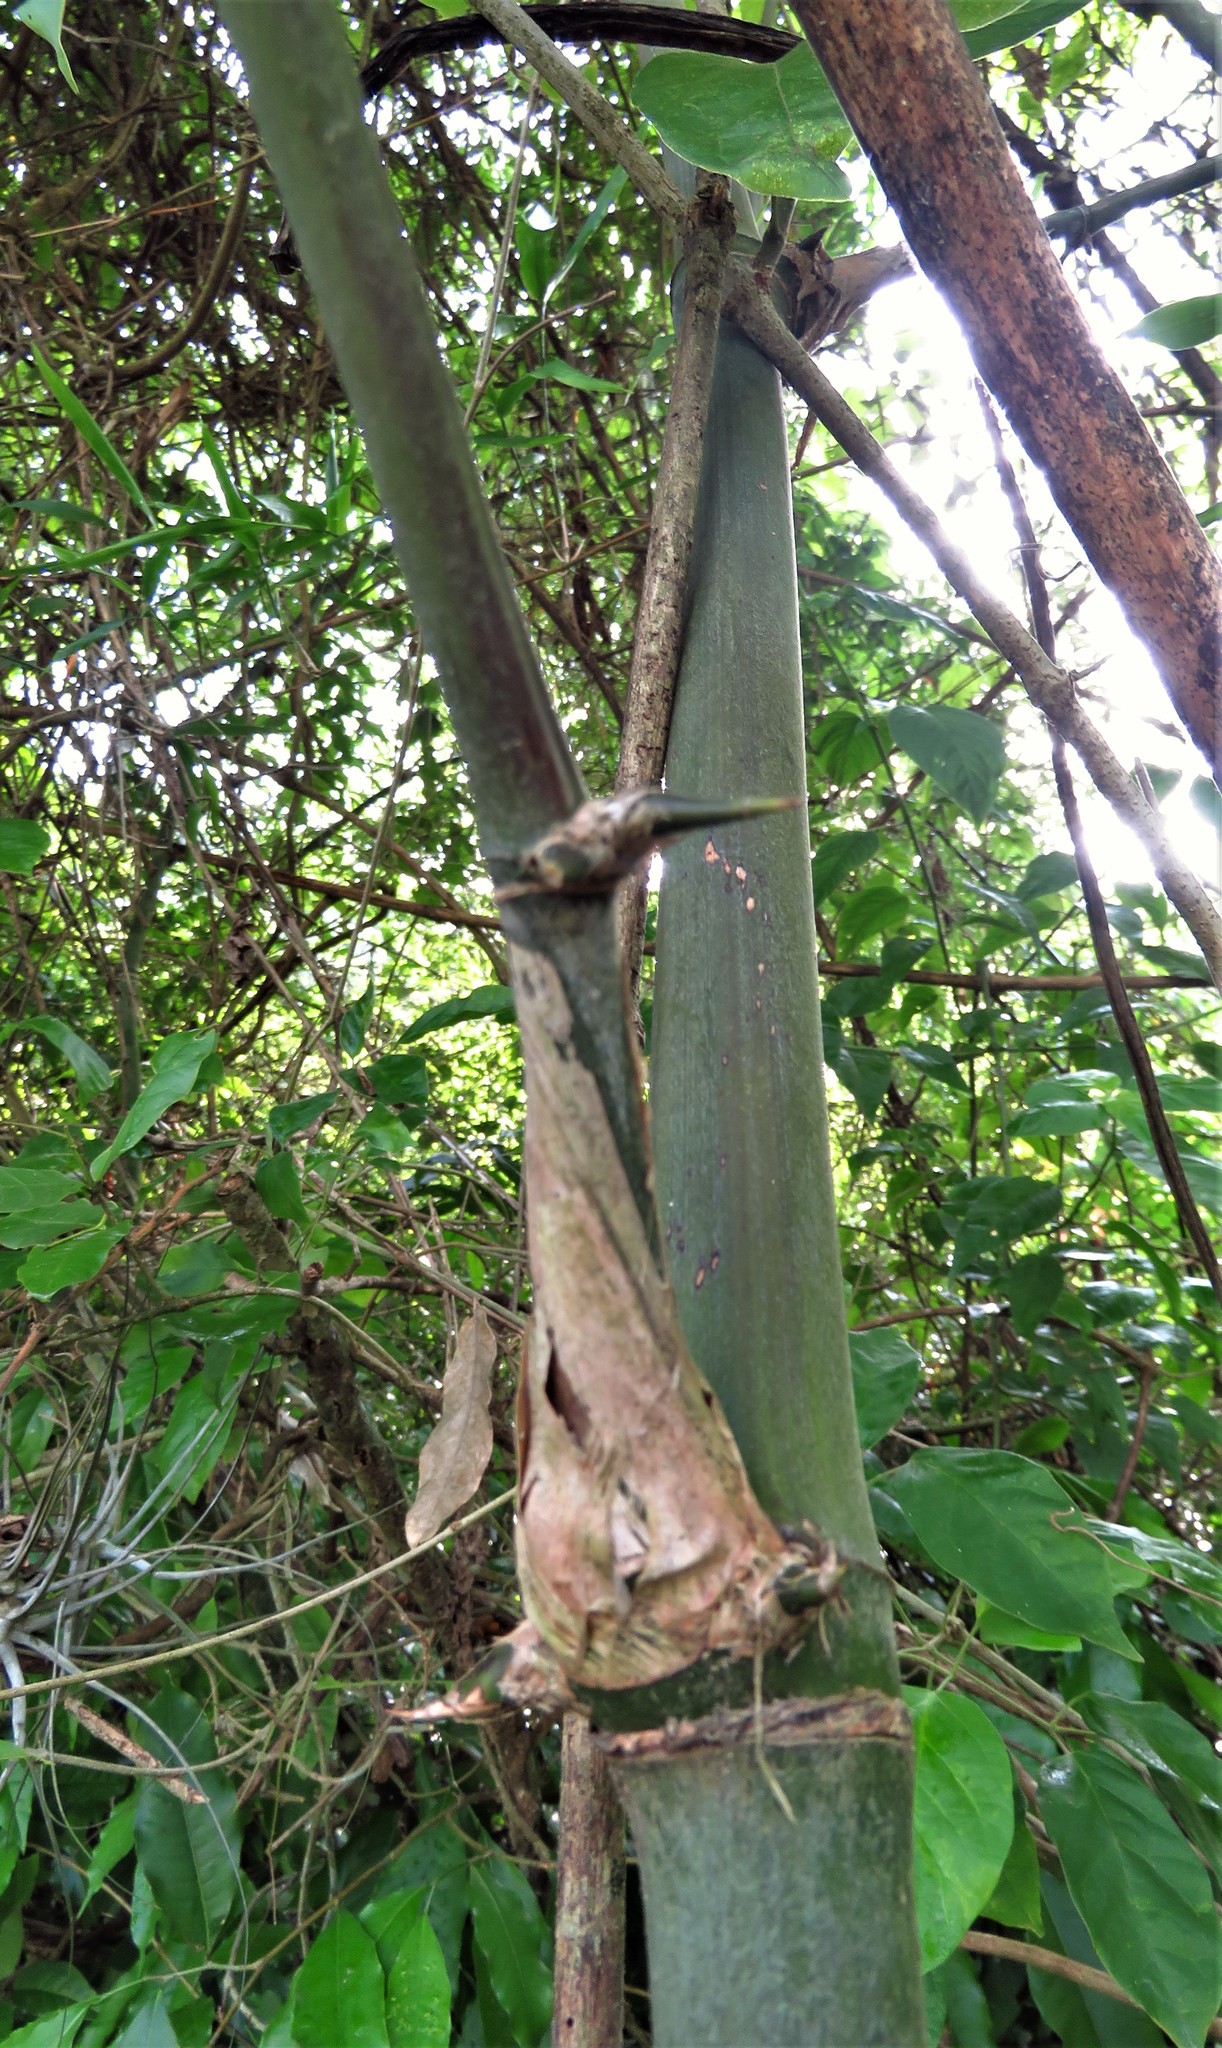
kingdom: Plantae
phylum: Tracheophyta
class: Liliopsida
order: Poales
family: Poaceae
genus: Guadua
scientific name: Guadua longifolia
